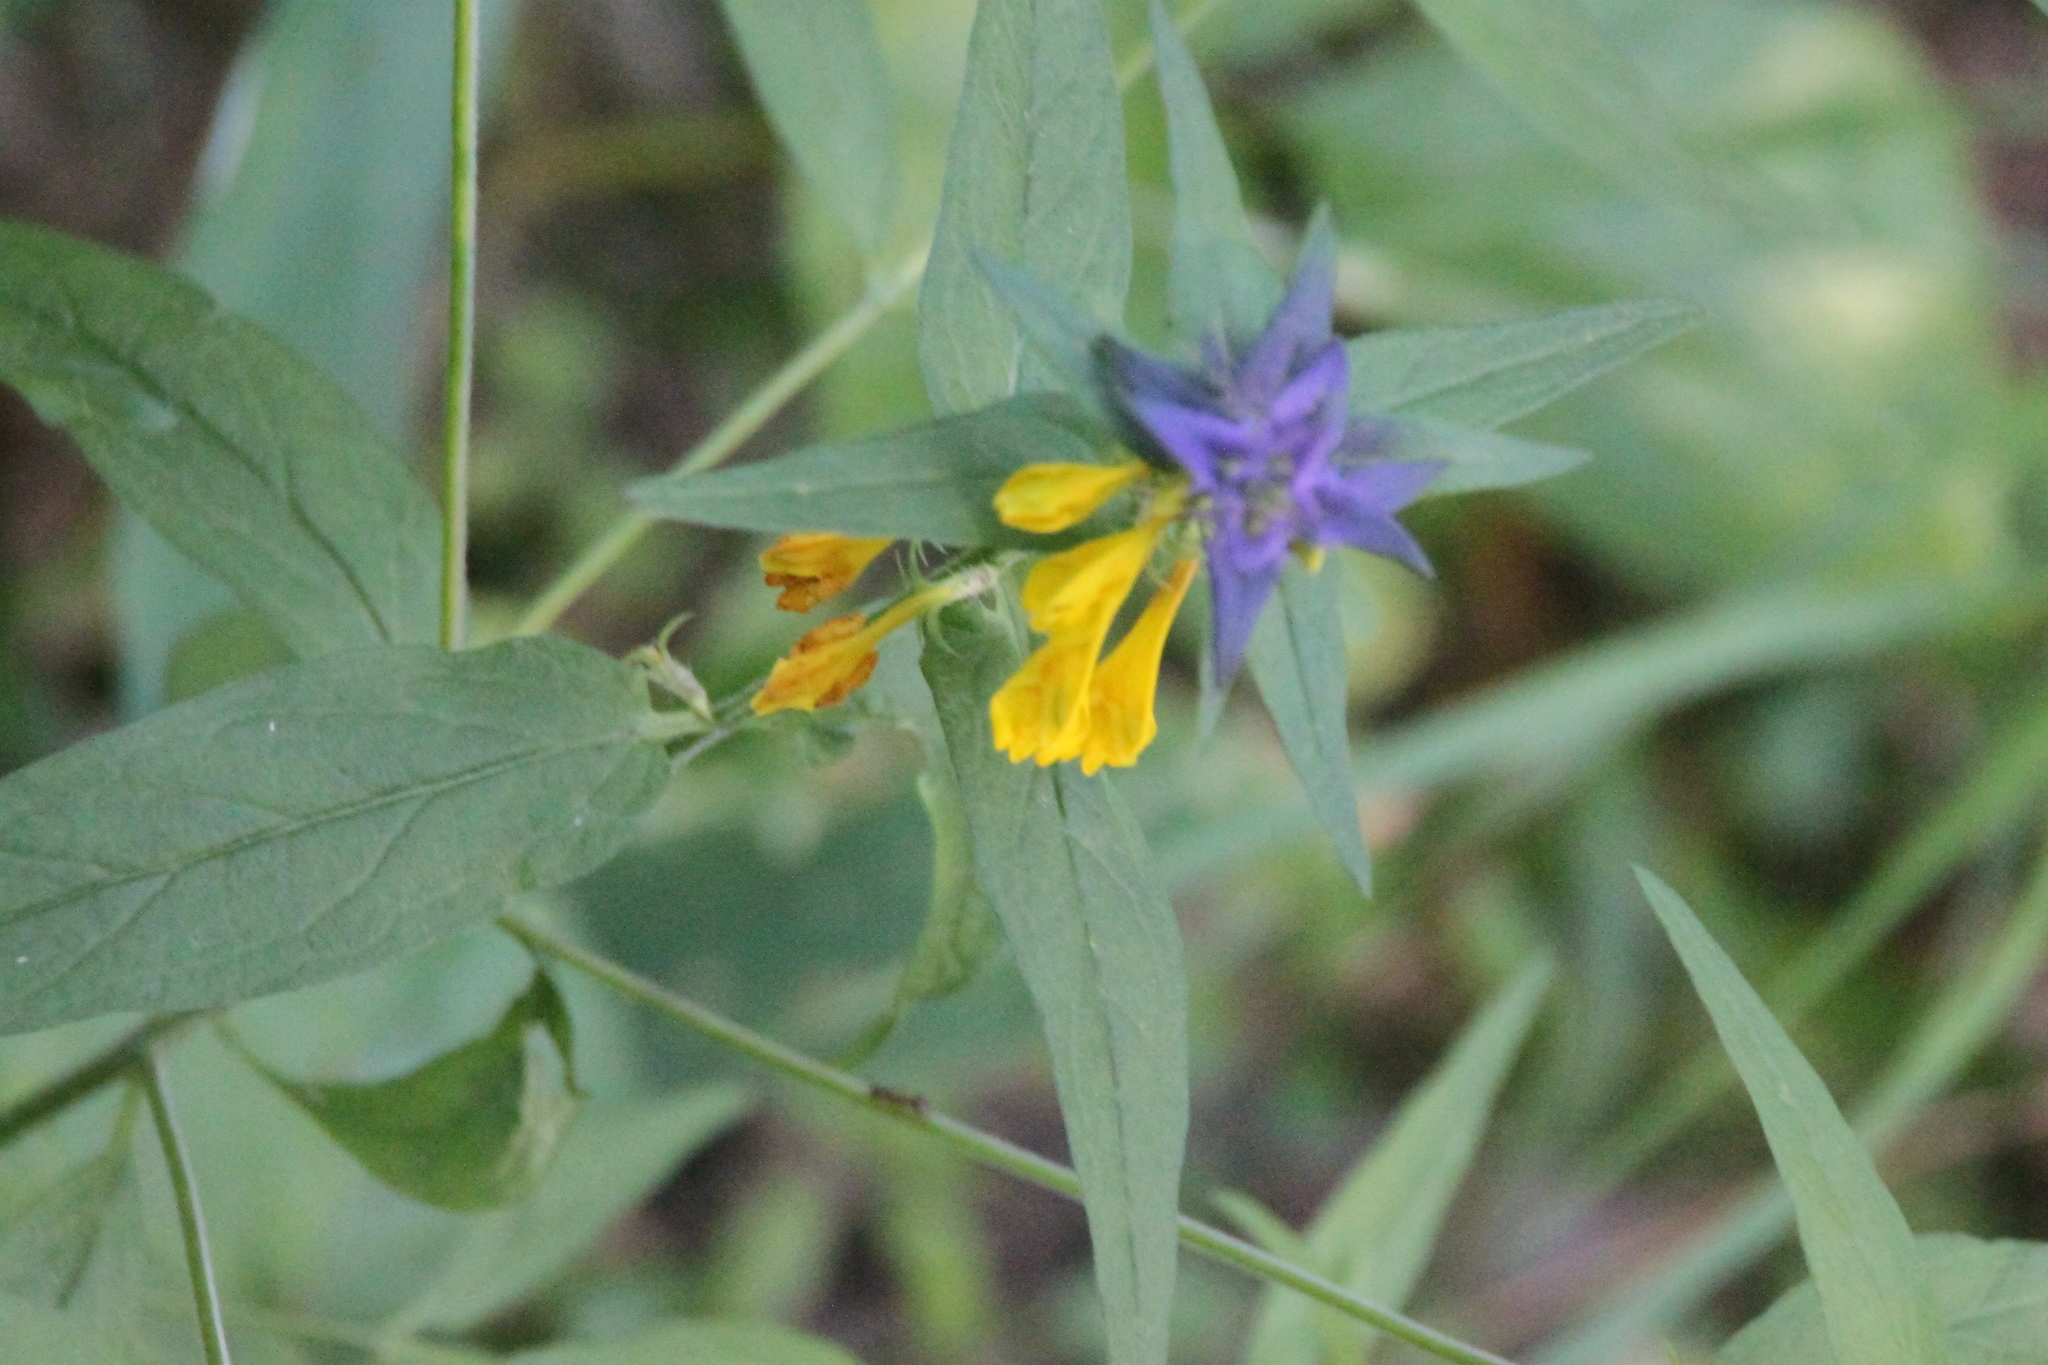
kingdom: Plantae
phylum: Tracheophyta
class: Magnoliopsida
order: Lamiales
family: Orobanchaceae
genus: Melampyrum
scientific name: Melampyrum nemorosum
